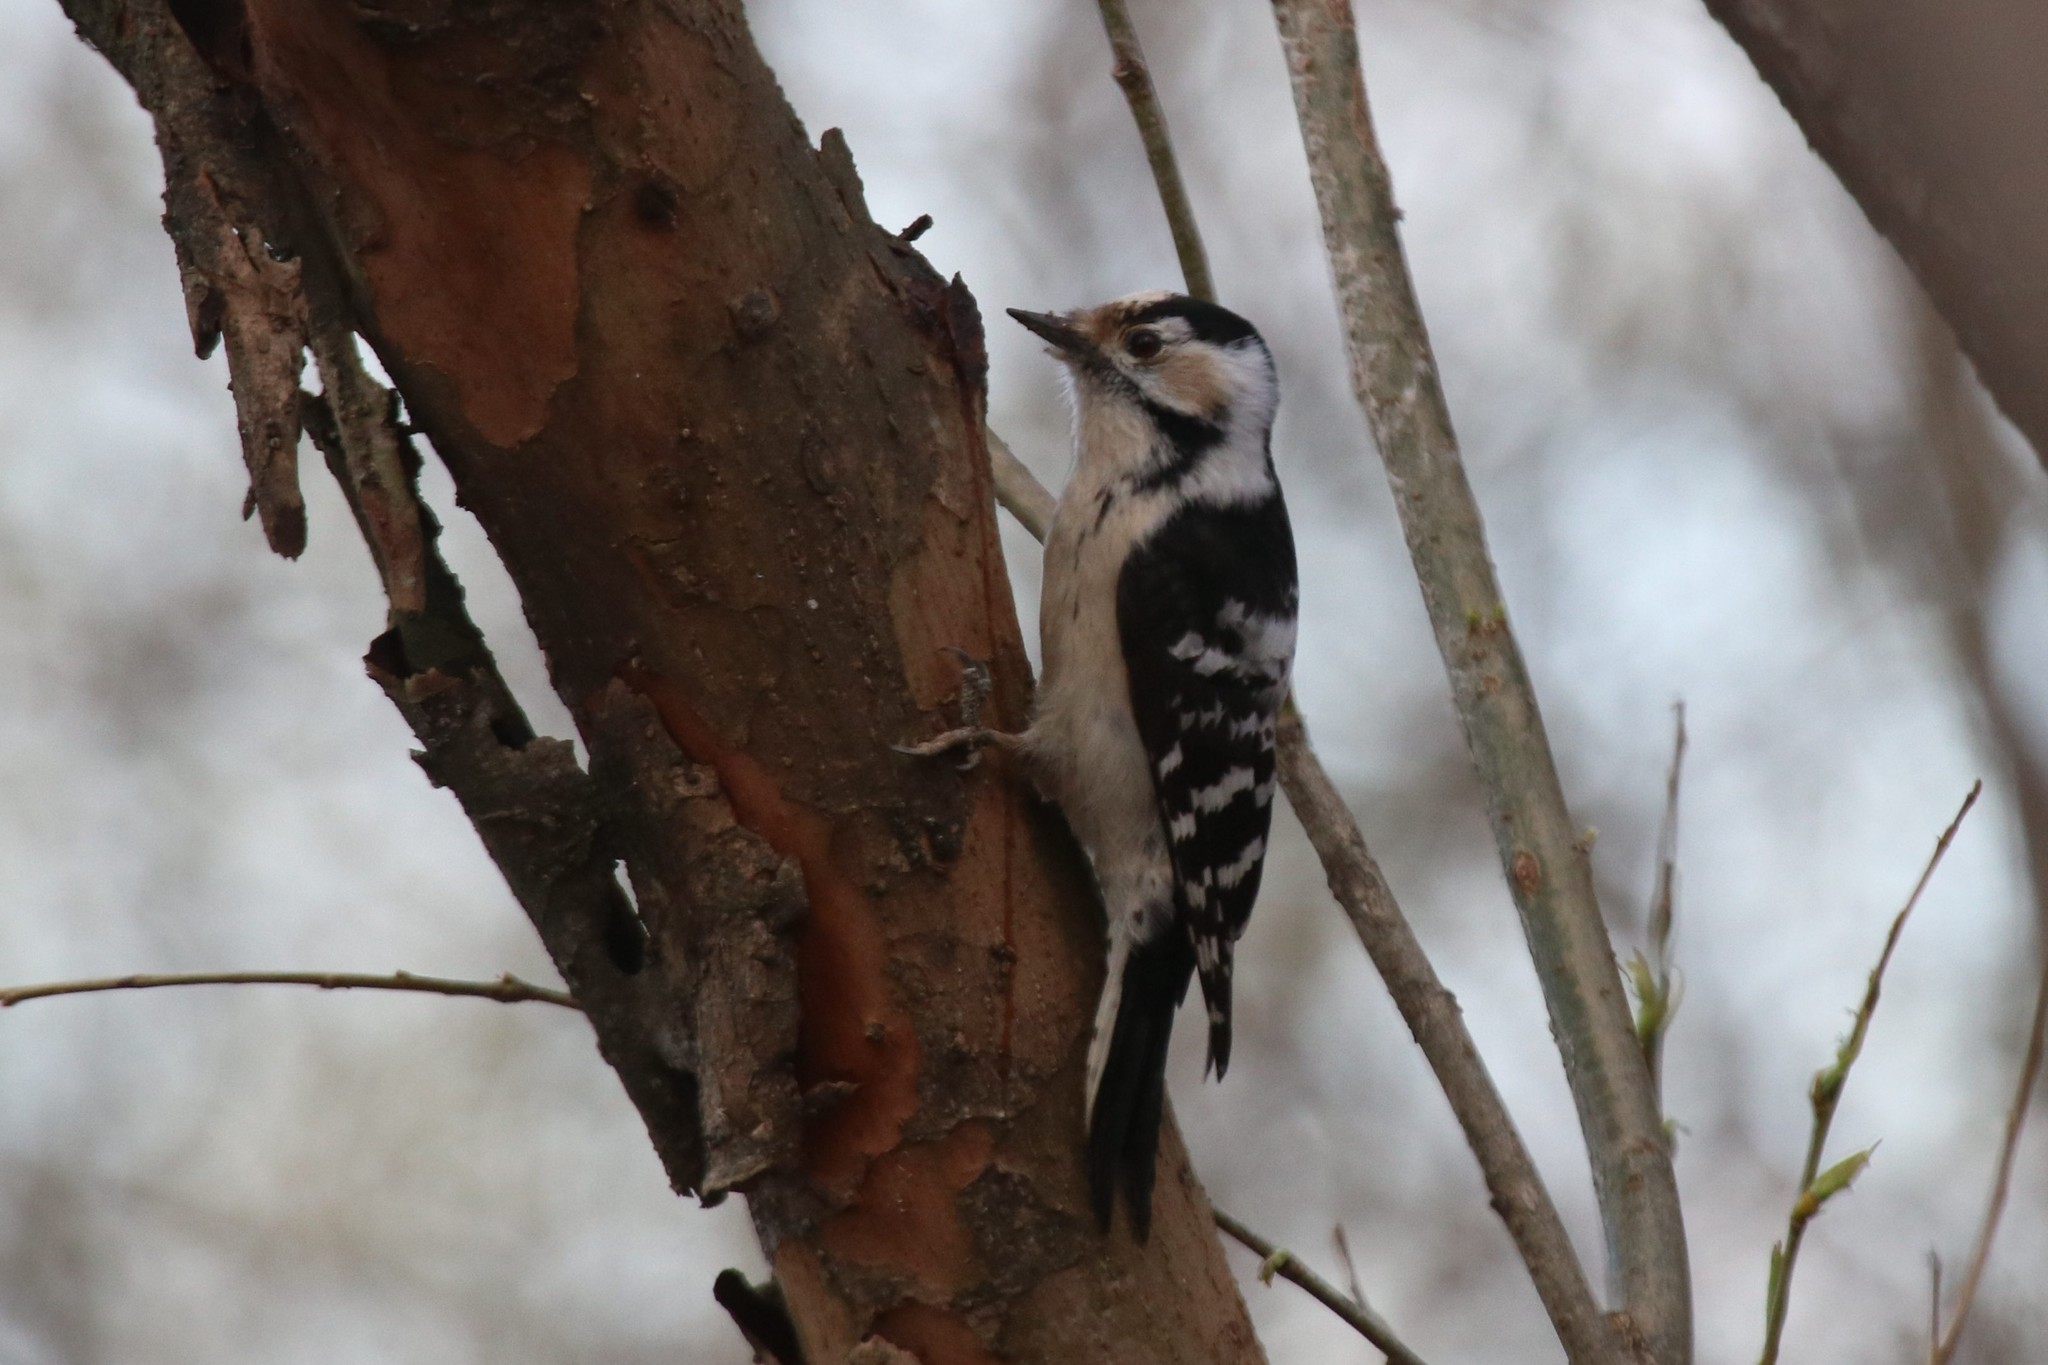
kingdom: Animalia
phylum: Chordata
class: Aves
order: Piciformes
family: Picidae
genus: Dryobates
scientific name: Dryobates minor
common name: Lesser spotted woodpecker
